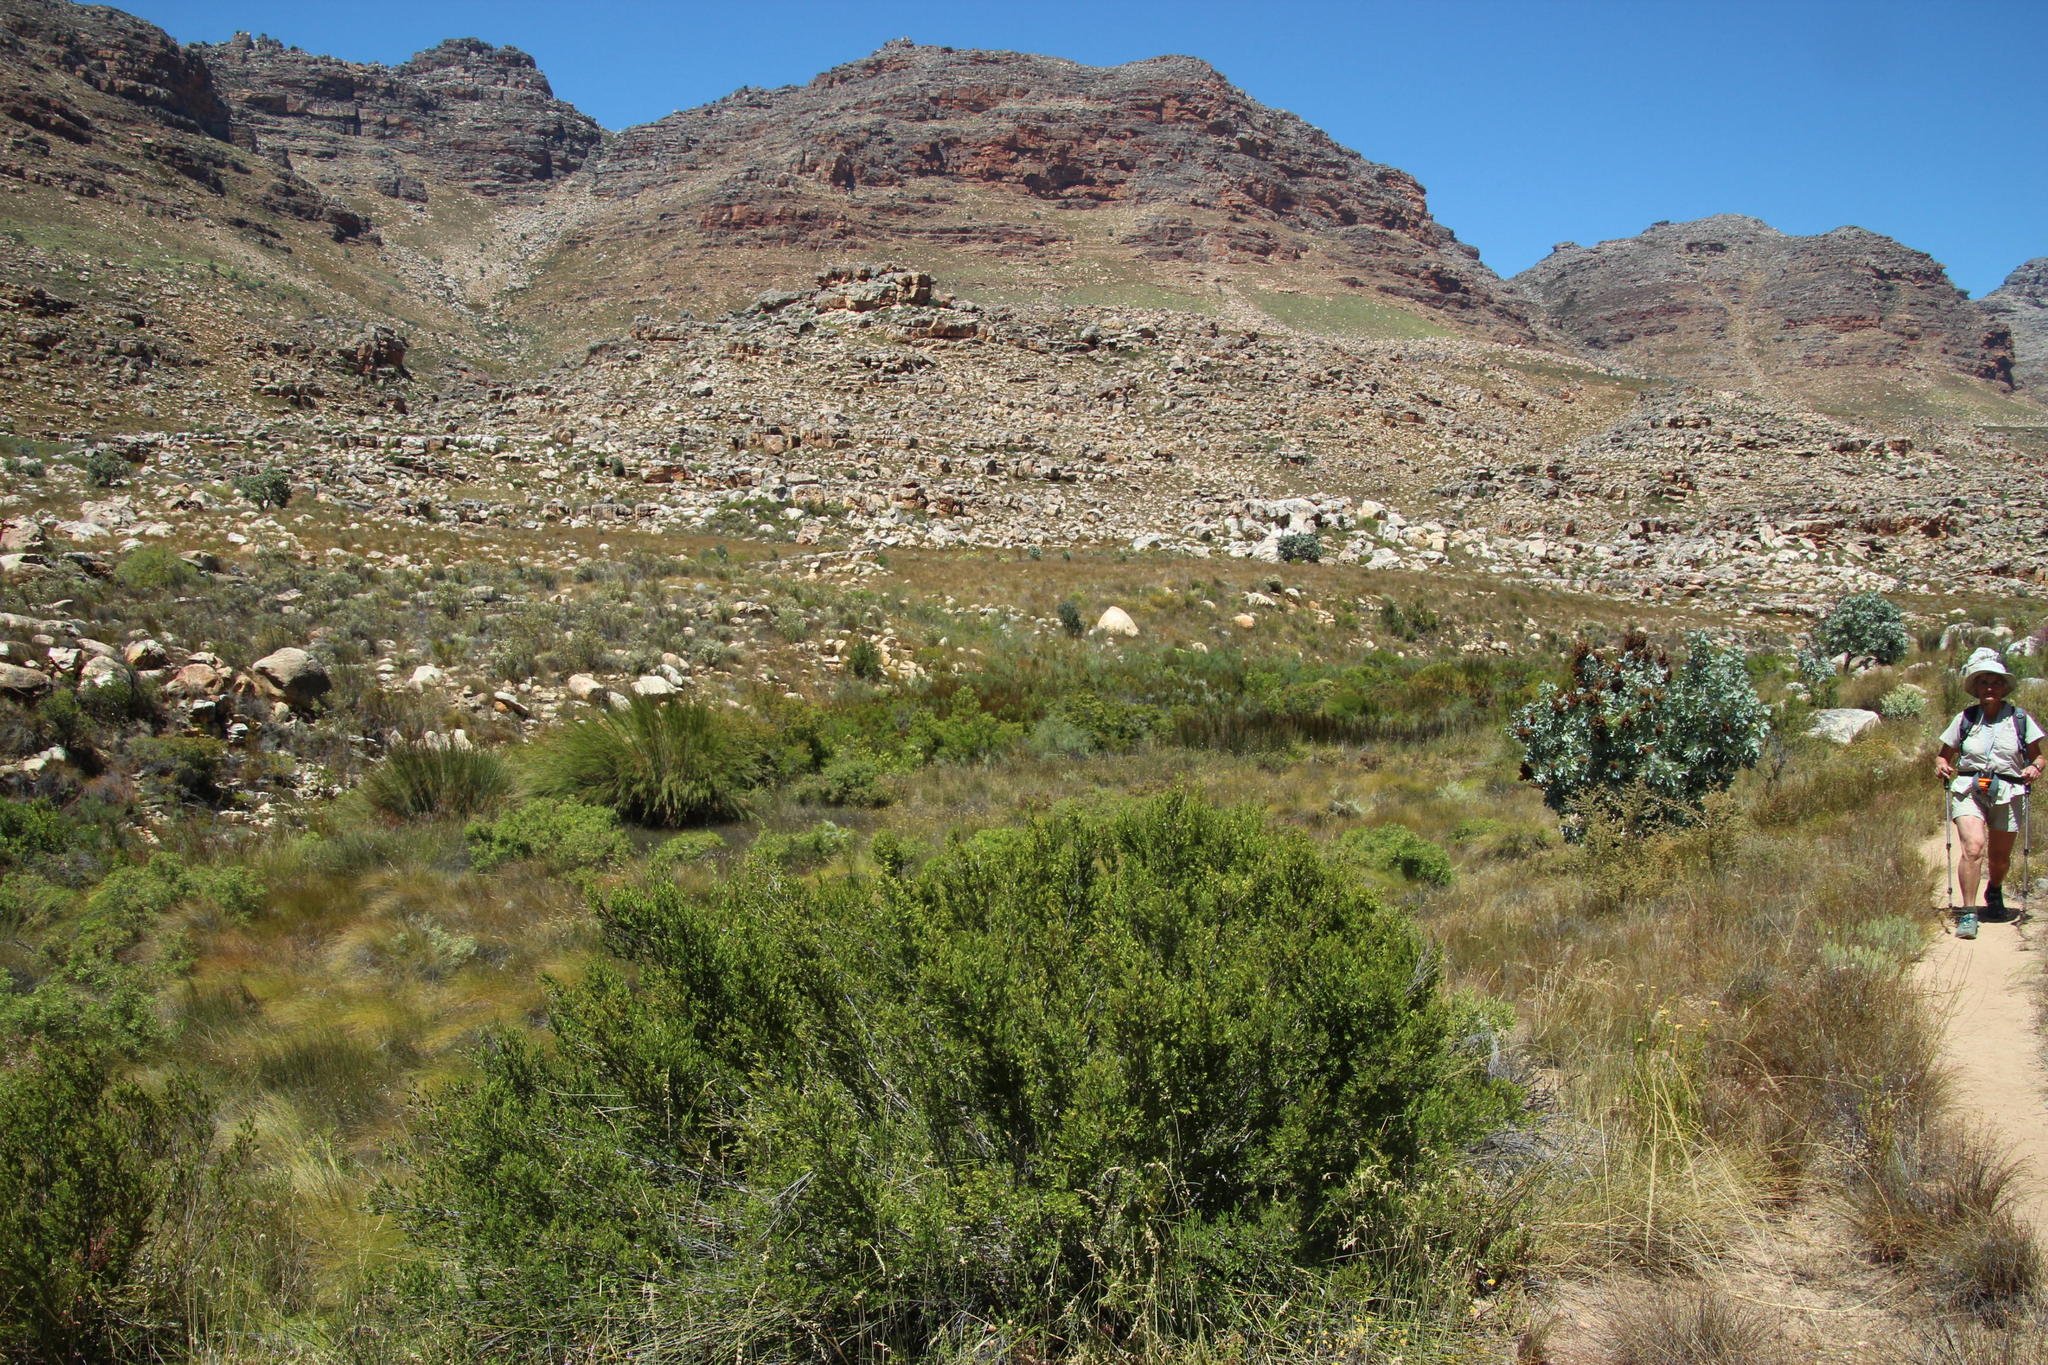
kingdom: Plantae
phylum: Tracheophyta
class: Magnoliopsida
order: Ericales
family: Ebenaceae
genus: Diospyros
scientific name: Diospyros glabra
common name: Fynbos star apple
